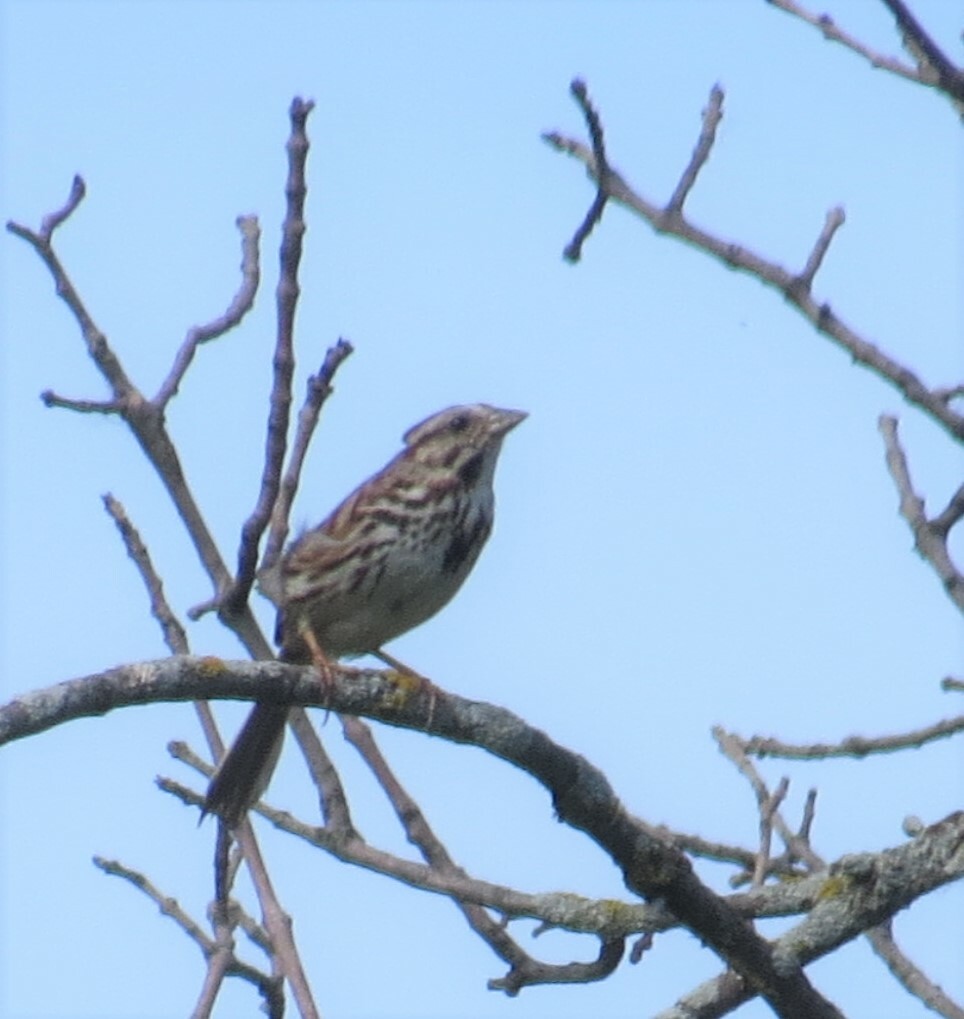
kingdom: Animalia
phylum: Chordata
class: Aves
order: Passeriformes
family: Passerellidae
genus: Melospiza
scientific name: Melospiza melodia
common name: Song sparrow
